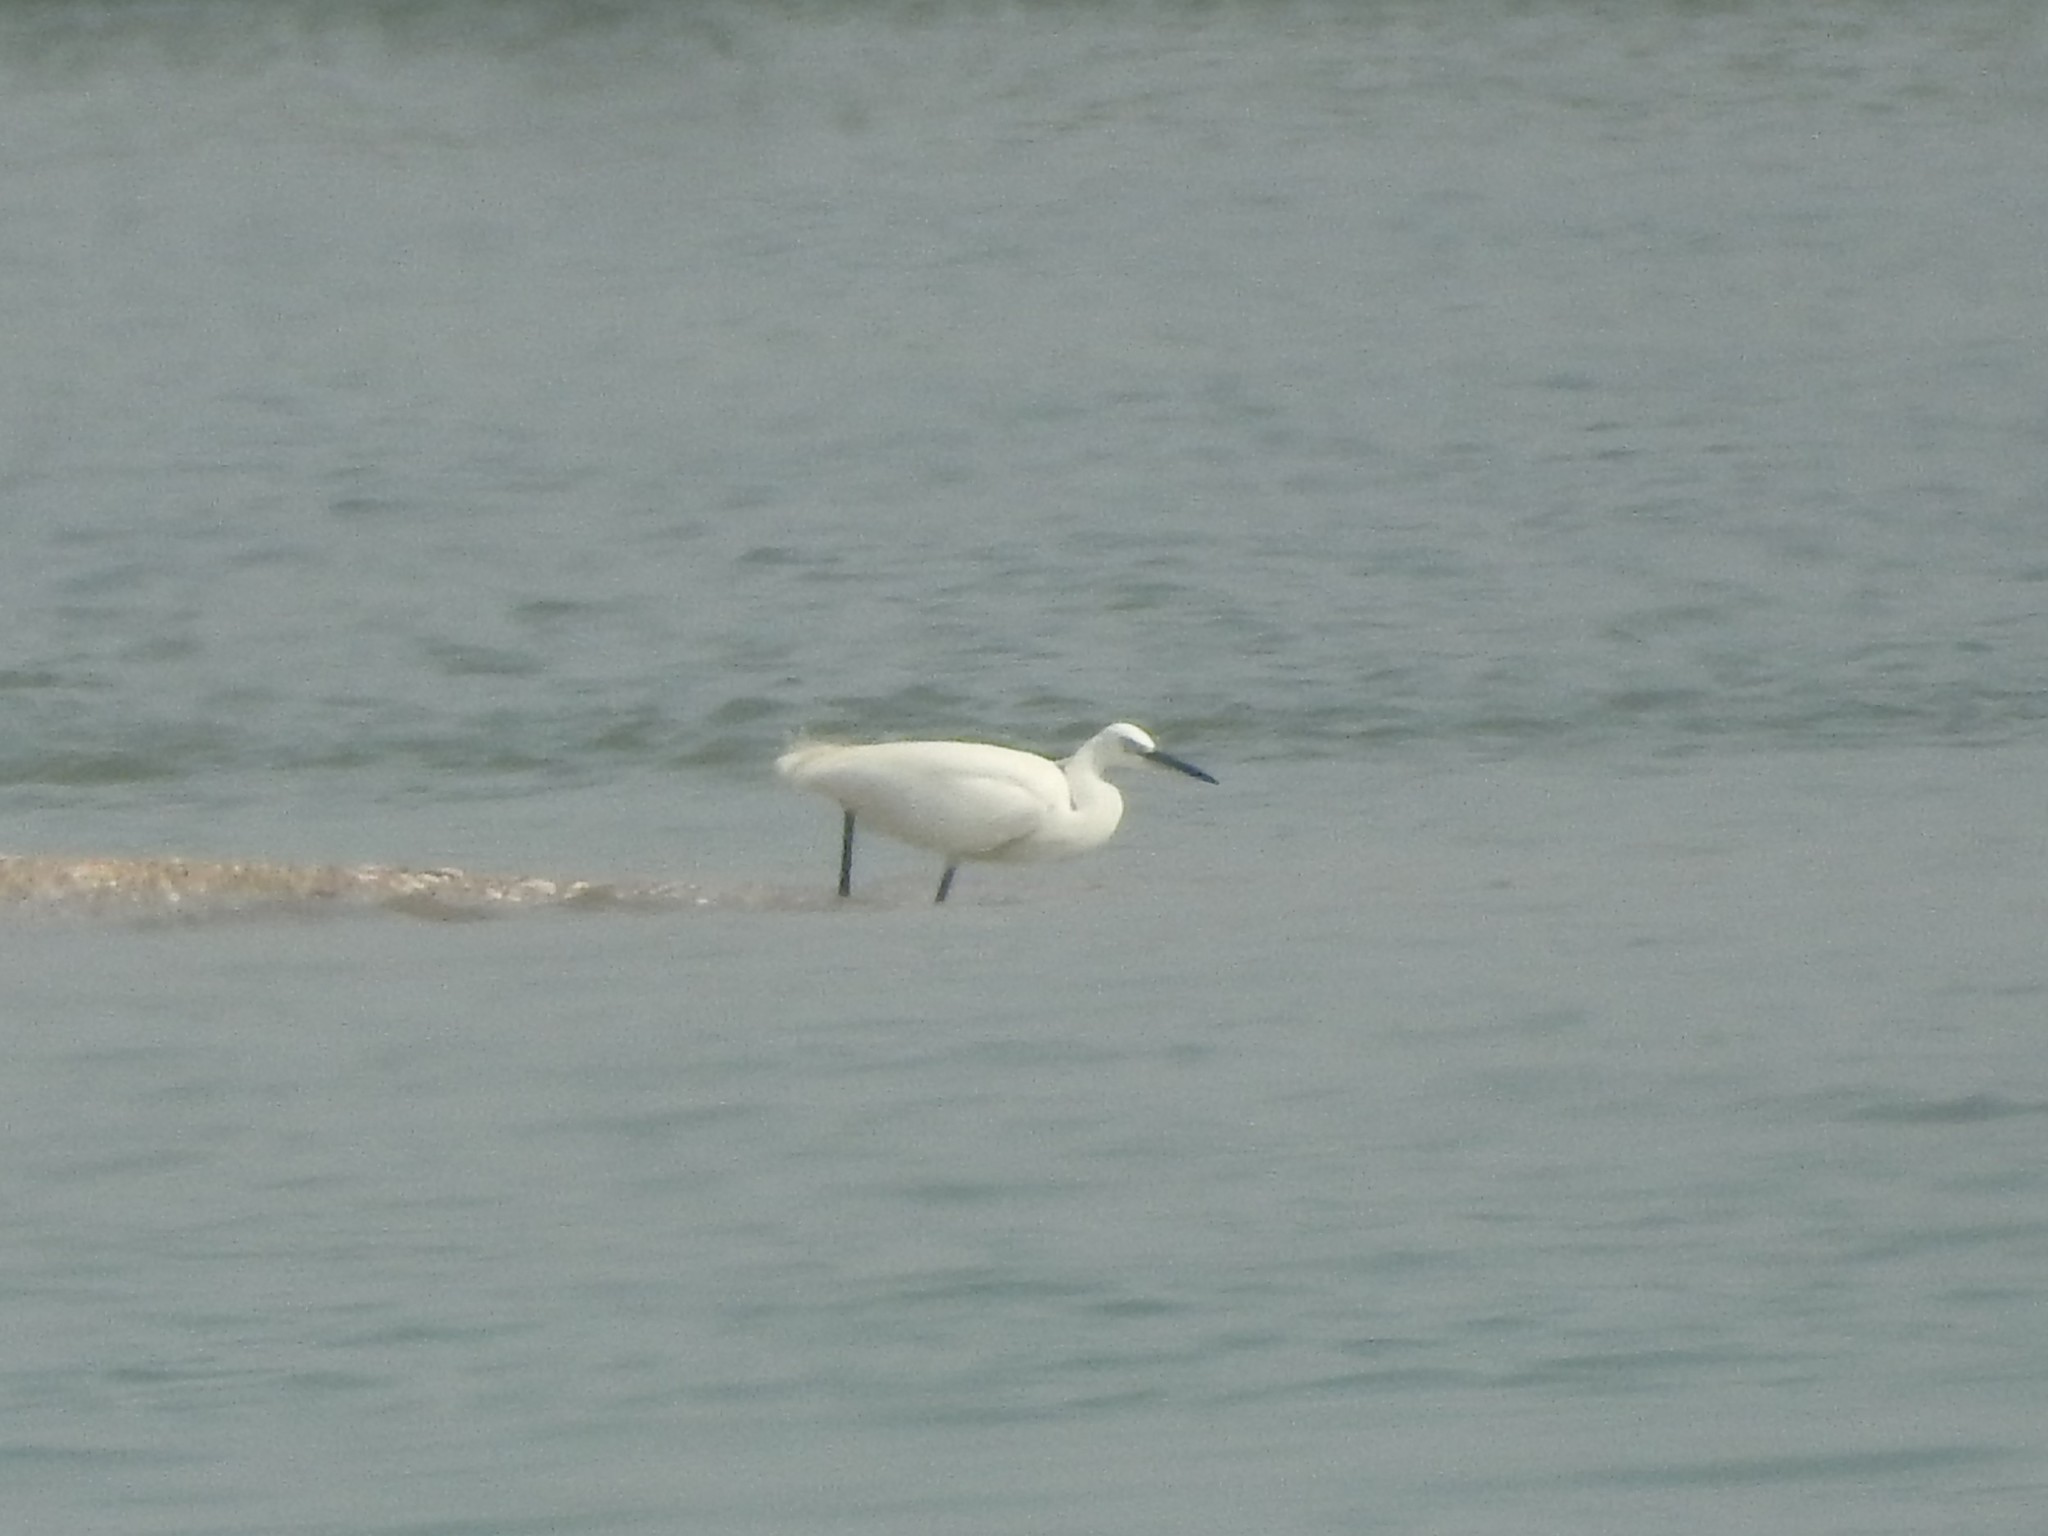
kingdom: Animalia
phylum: Chordata
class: Aves
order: Pelecaniformes
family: Ardeidae
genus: Egretta
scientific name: Egretta garzetta
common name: Little egret
